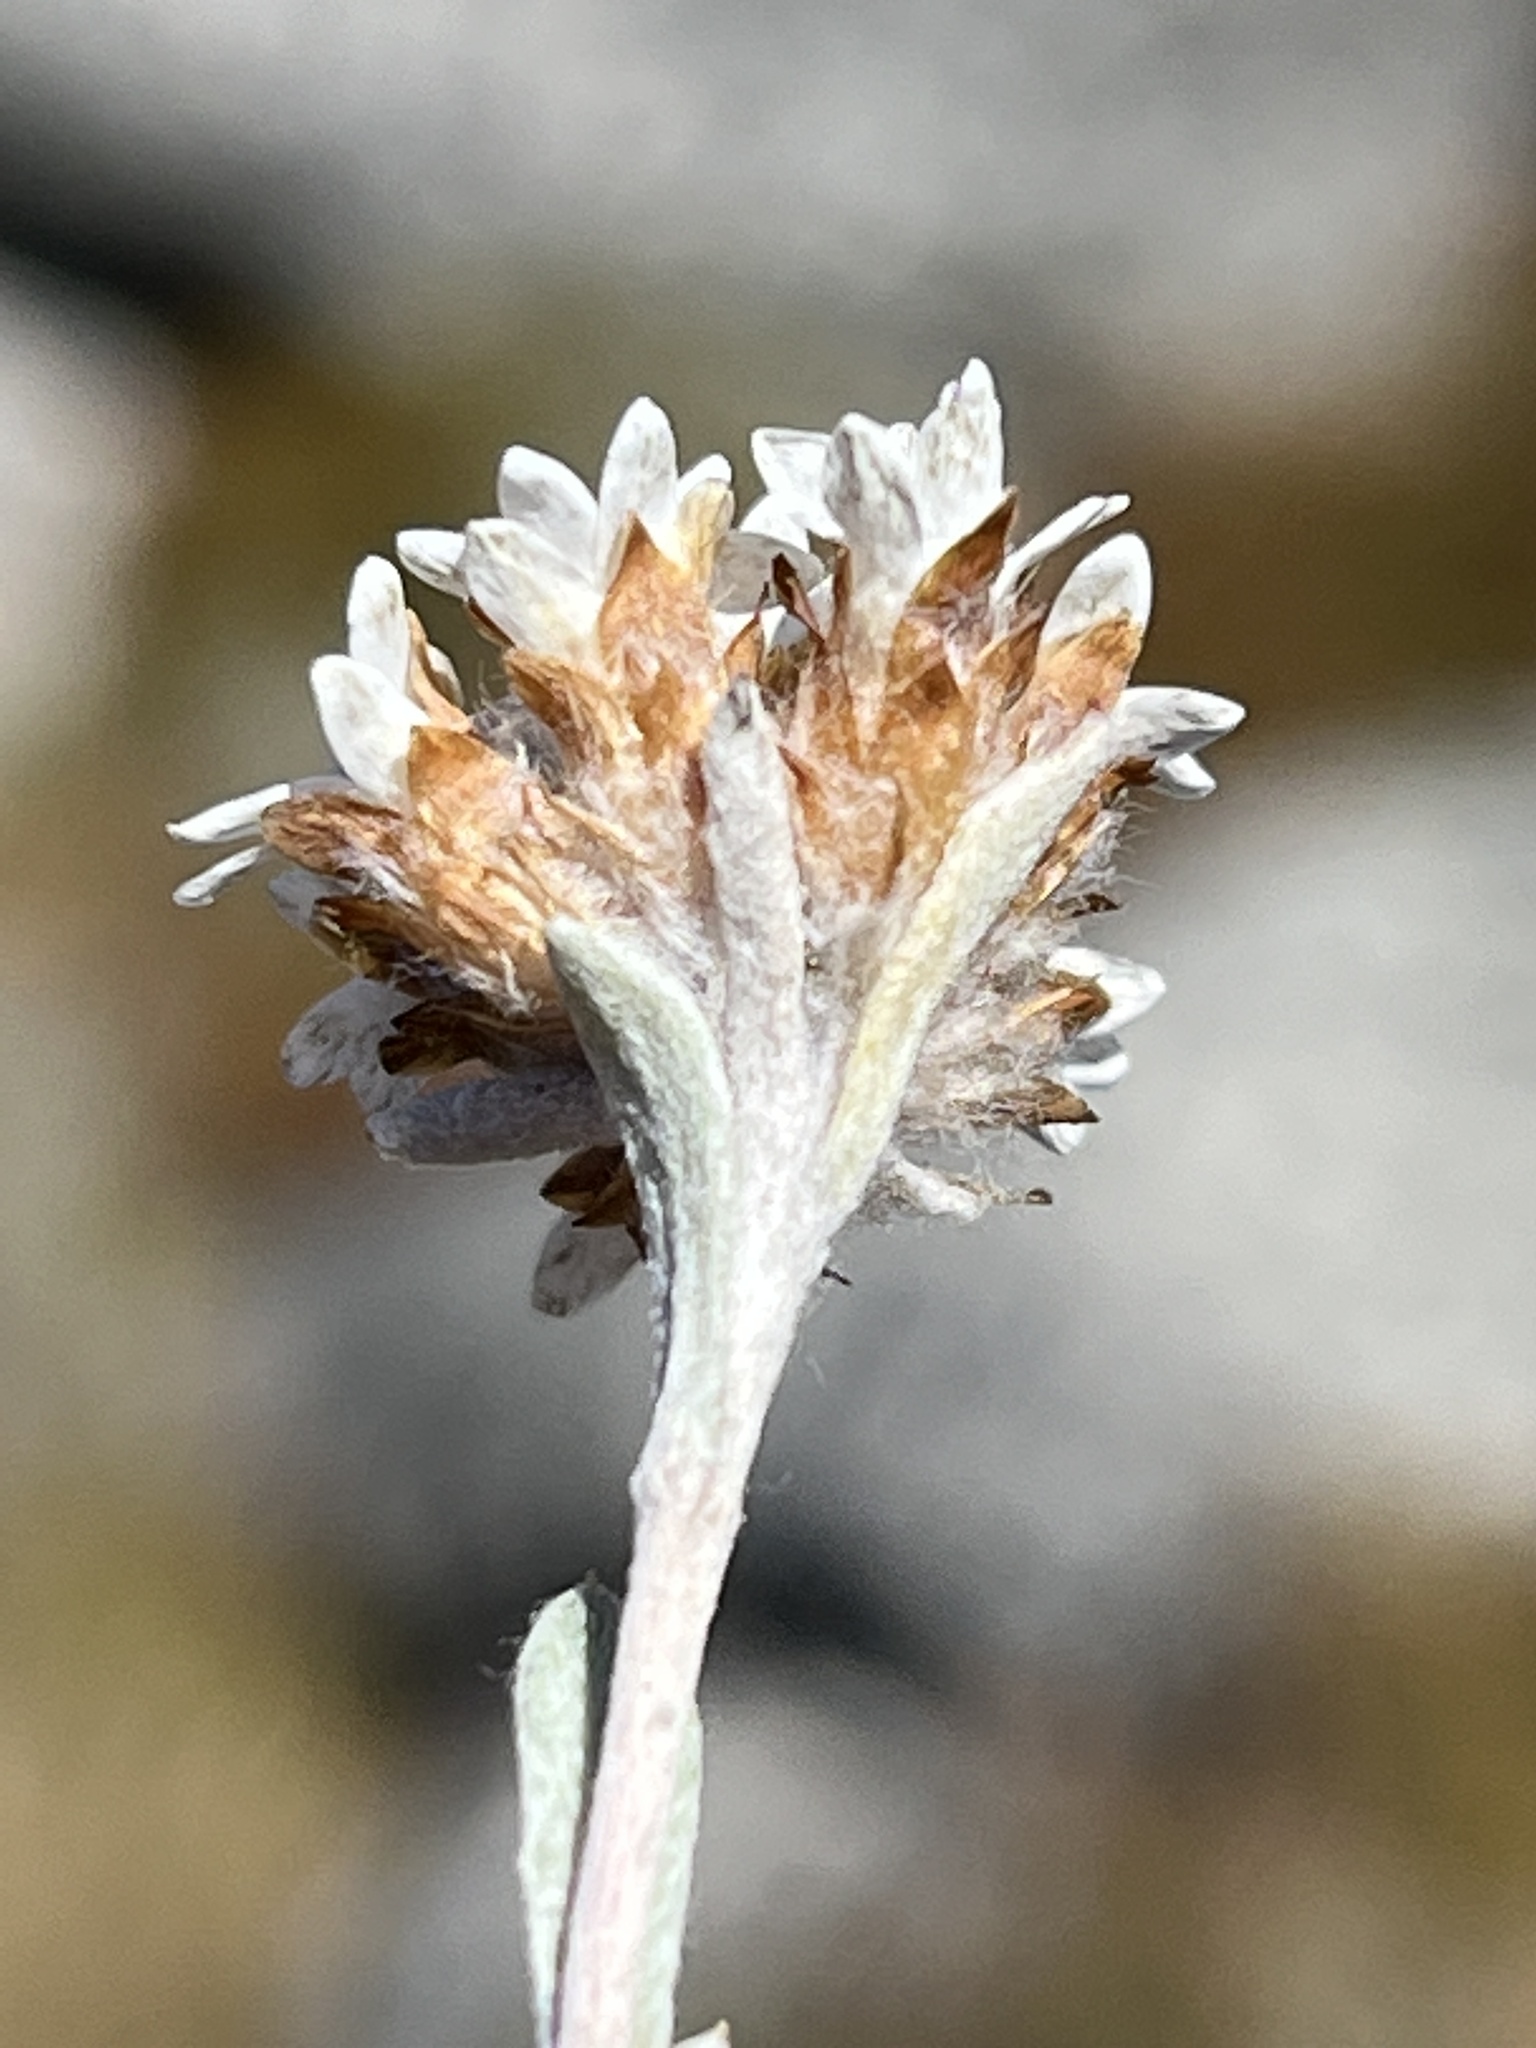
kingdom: Plantae
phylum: Tracheophyta
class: Magnoliopsida
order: Asterales
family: Asteraceae
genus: Langebergia
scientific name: Langebergia canescens
